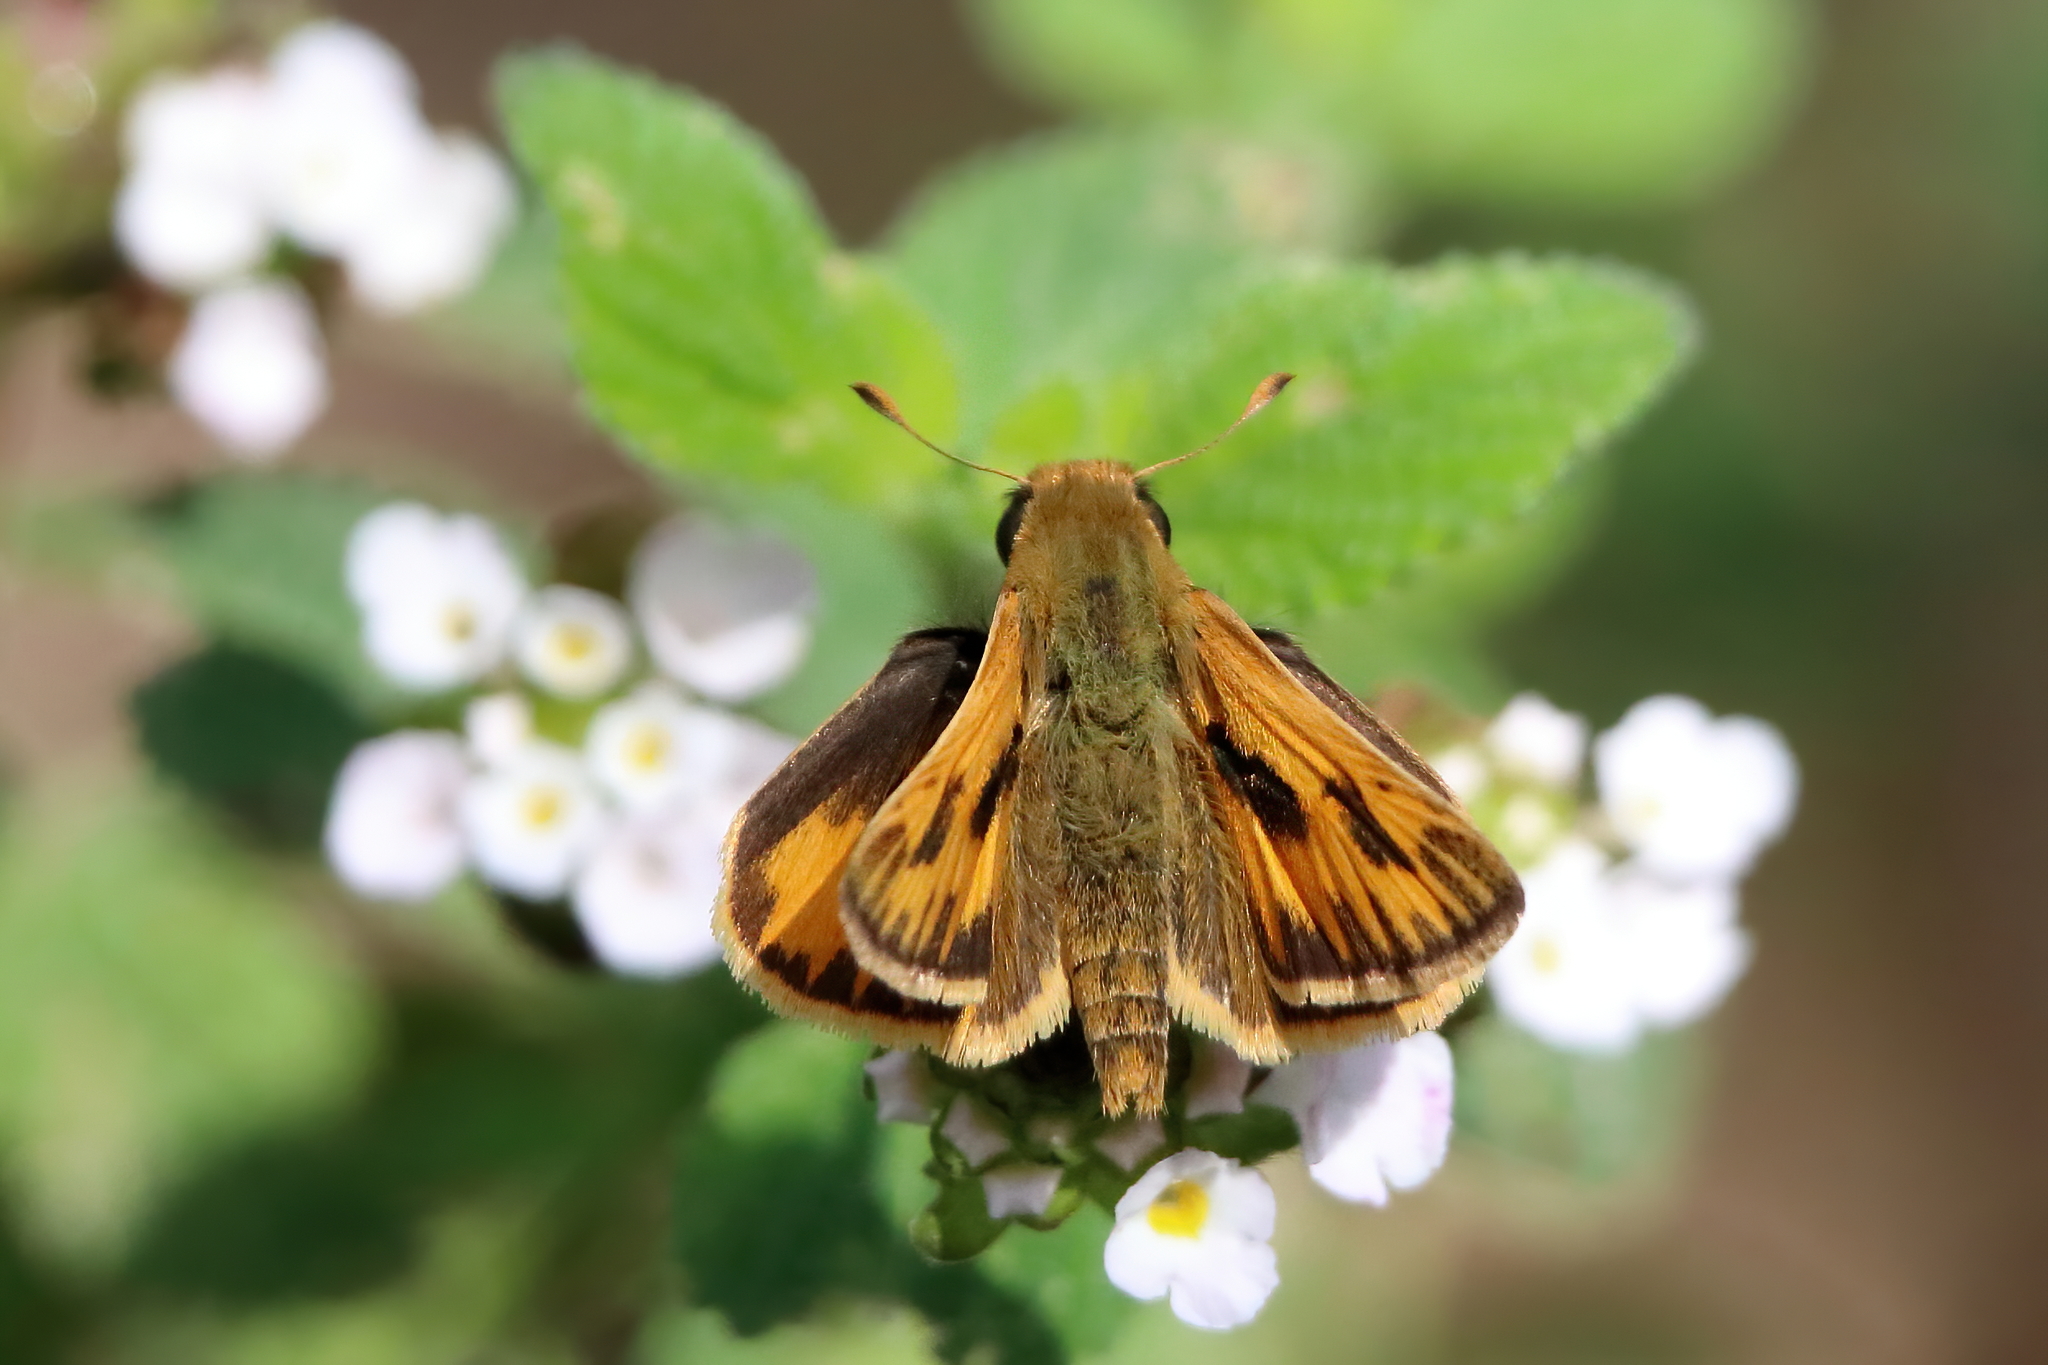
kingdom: Animalia
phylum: Arthropoda
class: Insecta
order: Lepidoptera
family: Hesperiidae
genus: Hylephila
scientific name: Hylephila phyleus
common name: Fiery skipper
